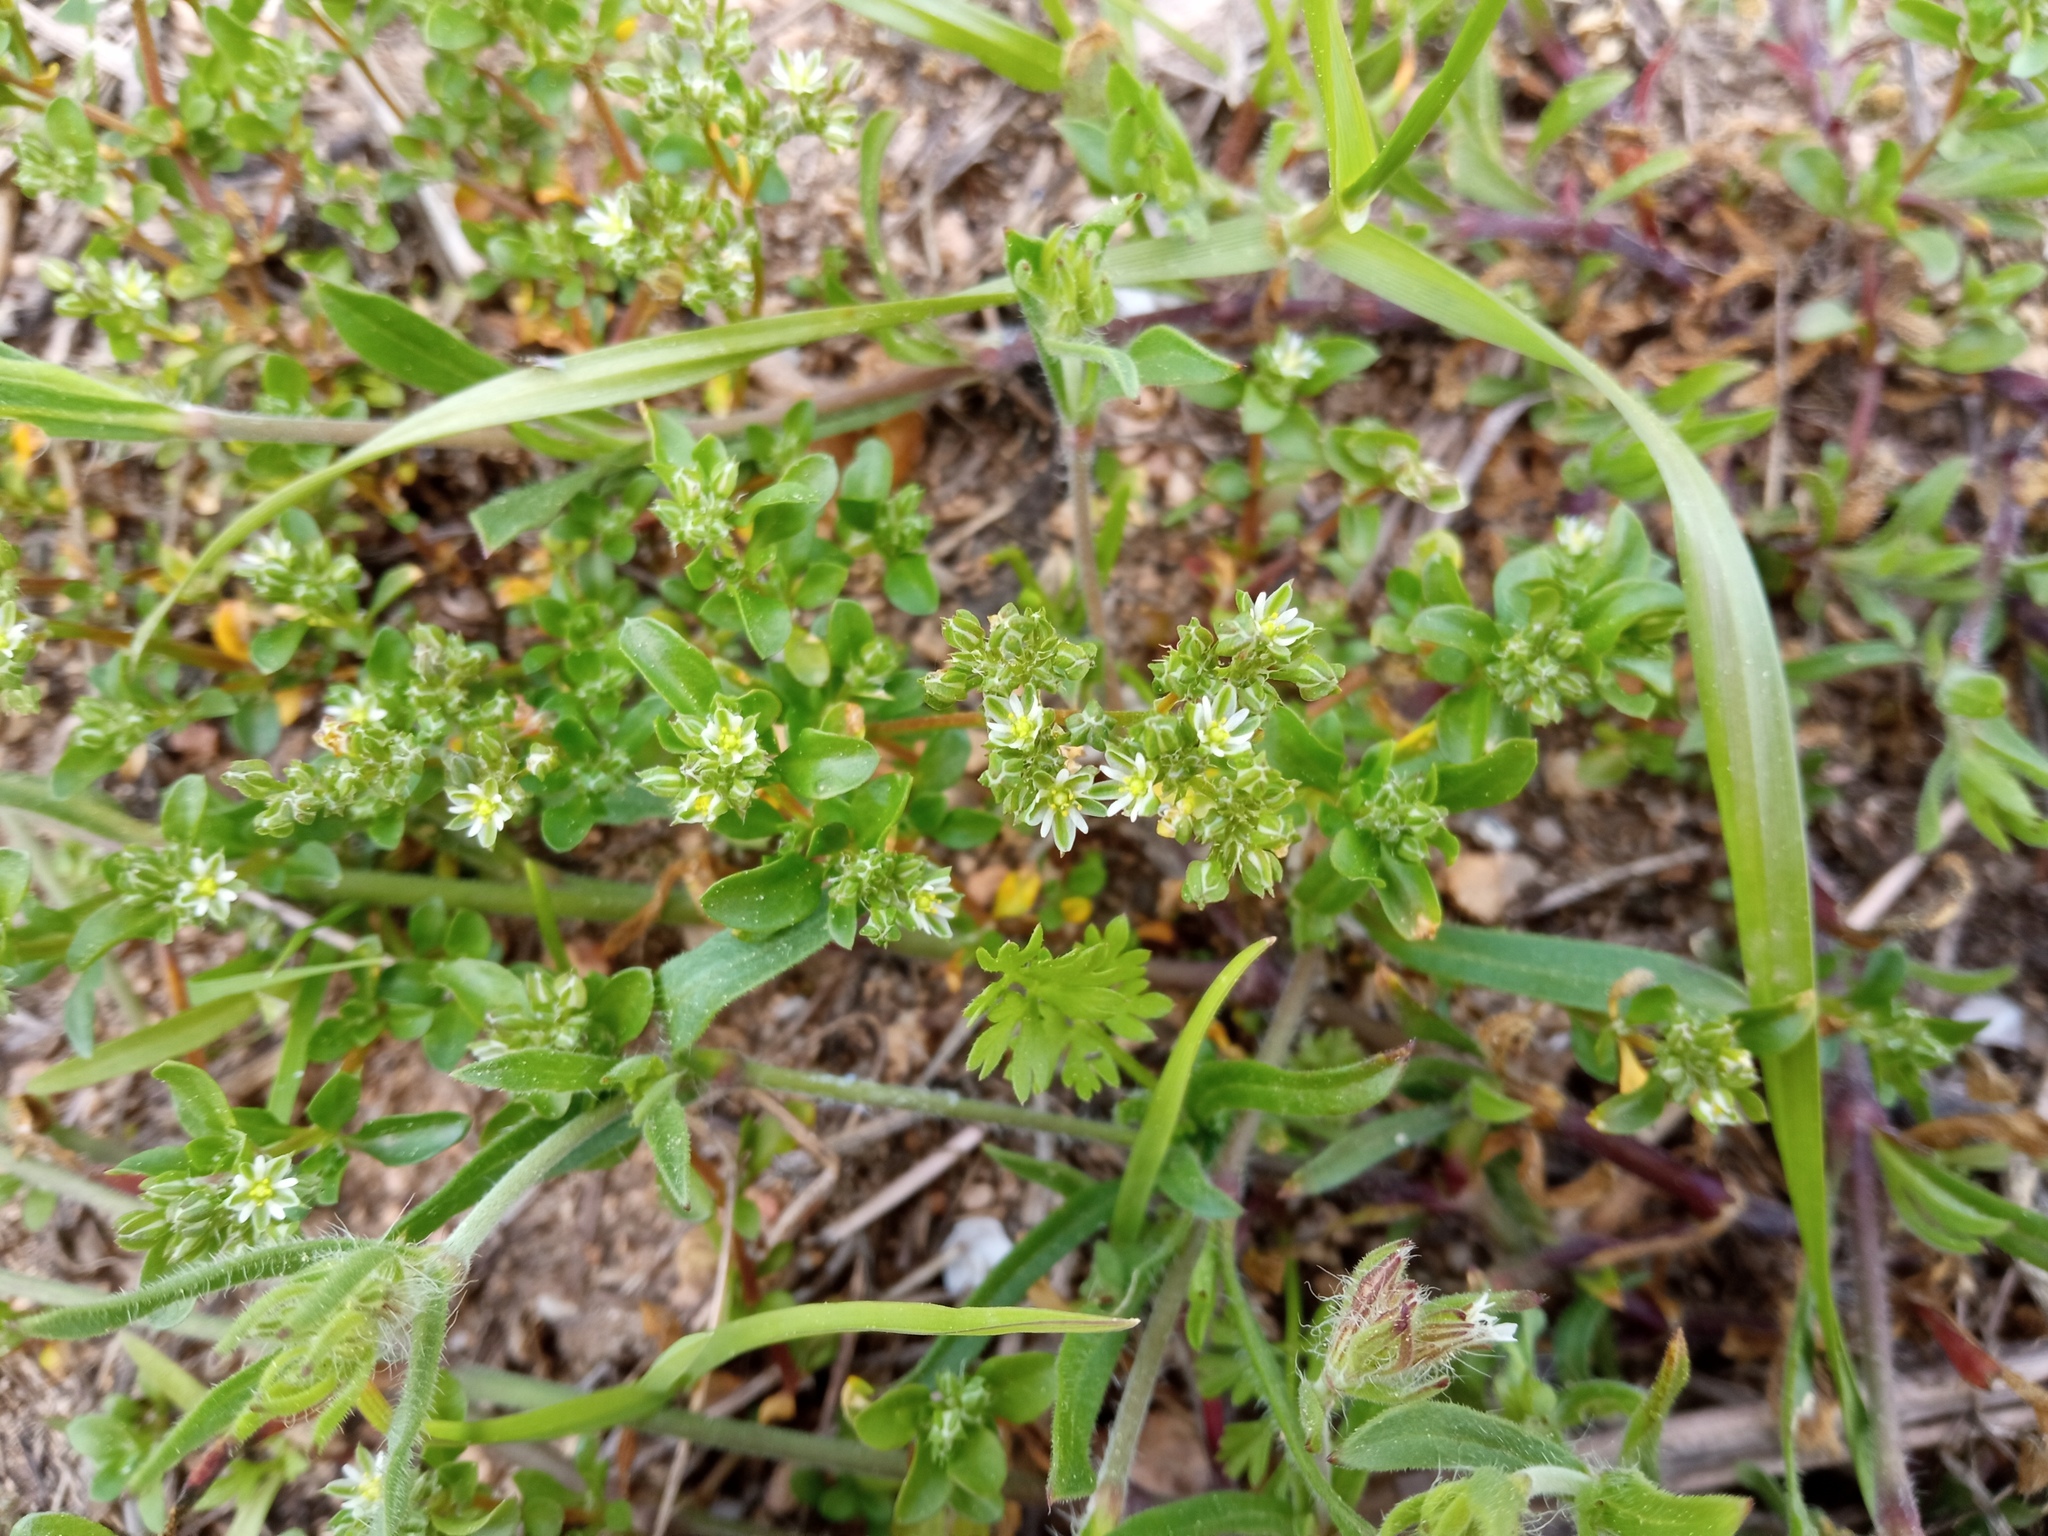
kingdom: Plantae
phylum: Tracheophyta
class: Magnoliopsida
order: Caryophyllales
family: Caryophyllaceae
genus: Polycarpon
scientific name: Polycarpon tetraphyllum
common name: Four-leaved all-seed
